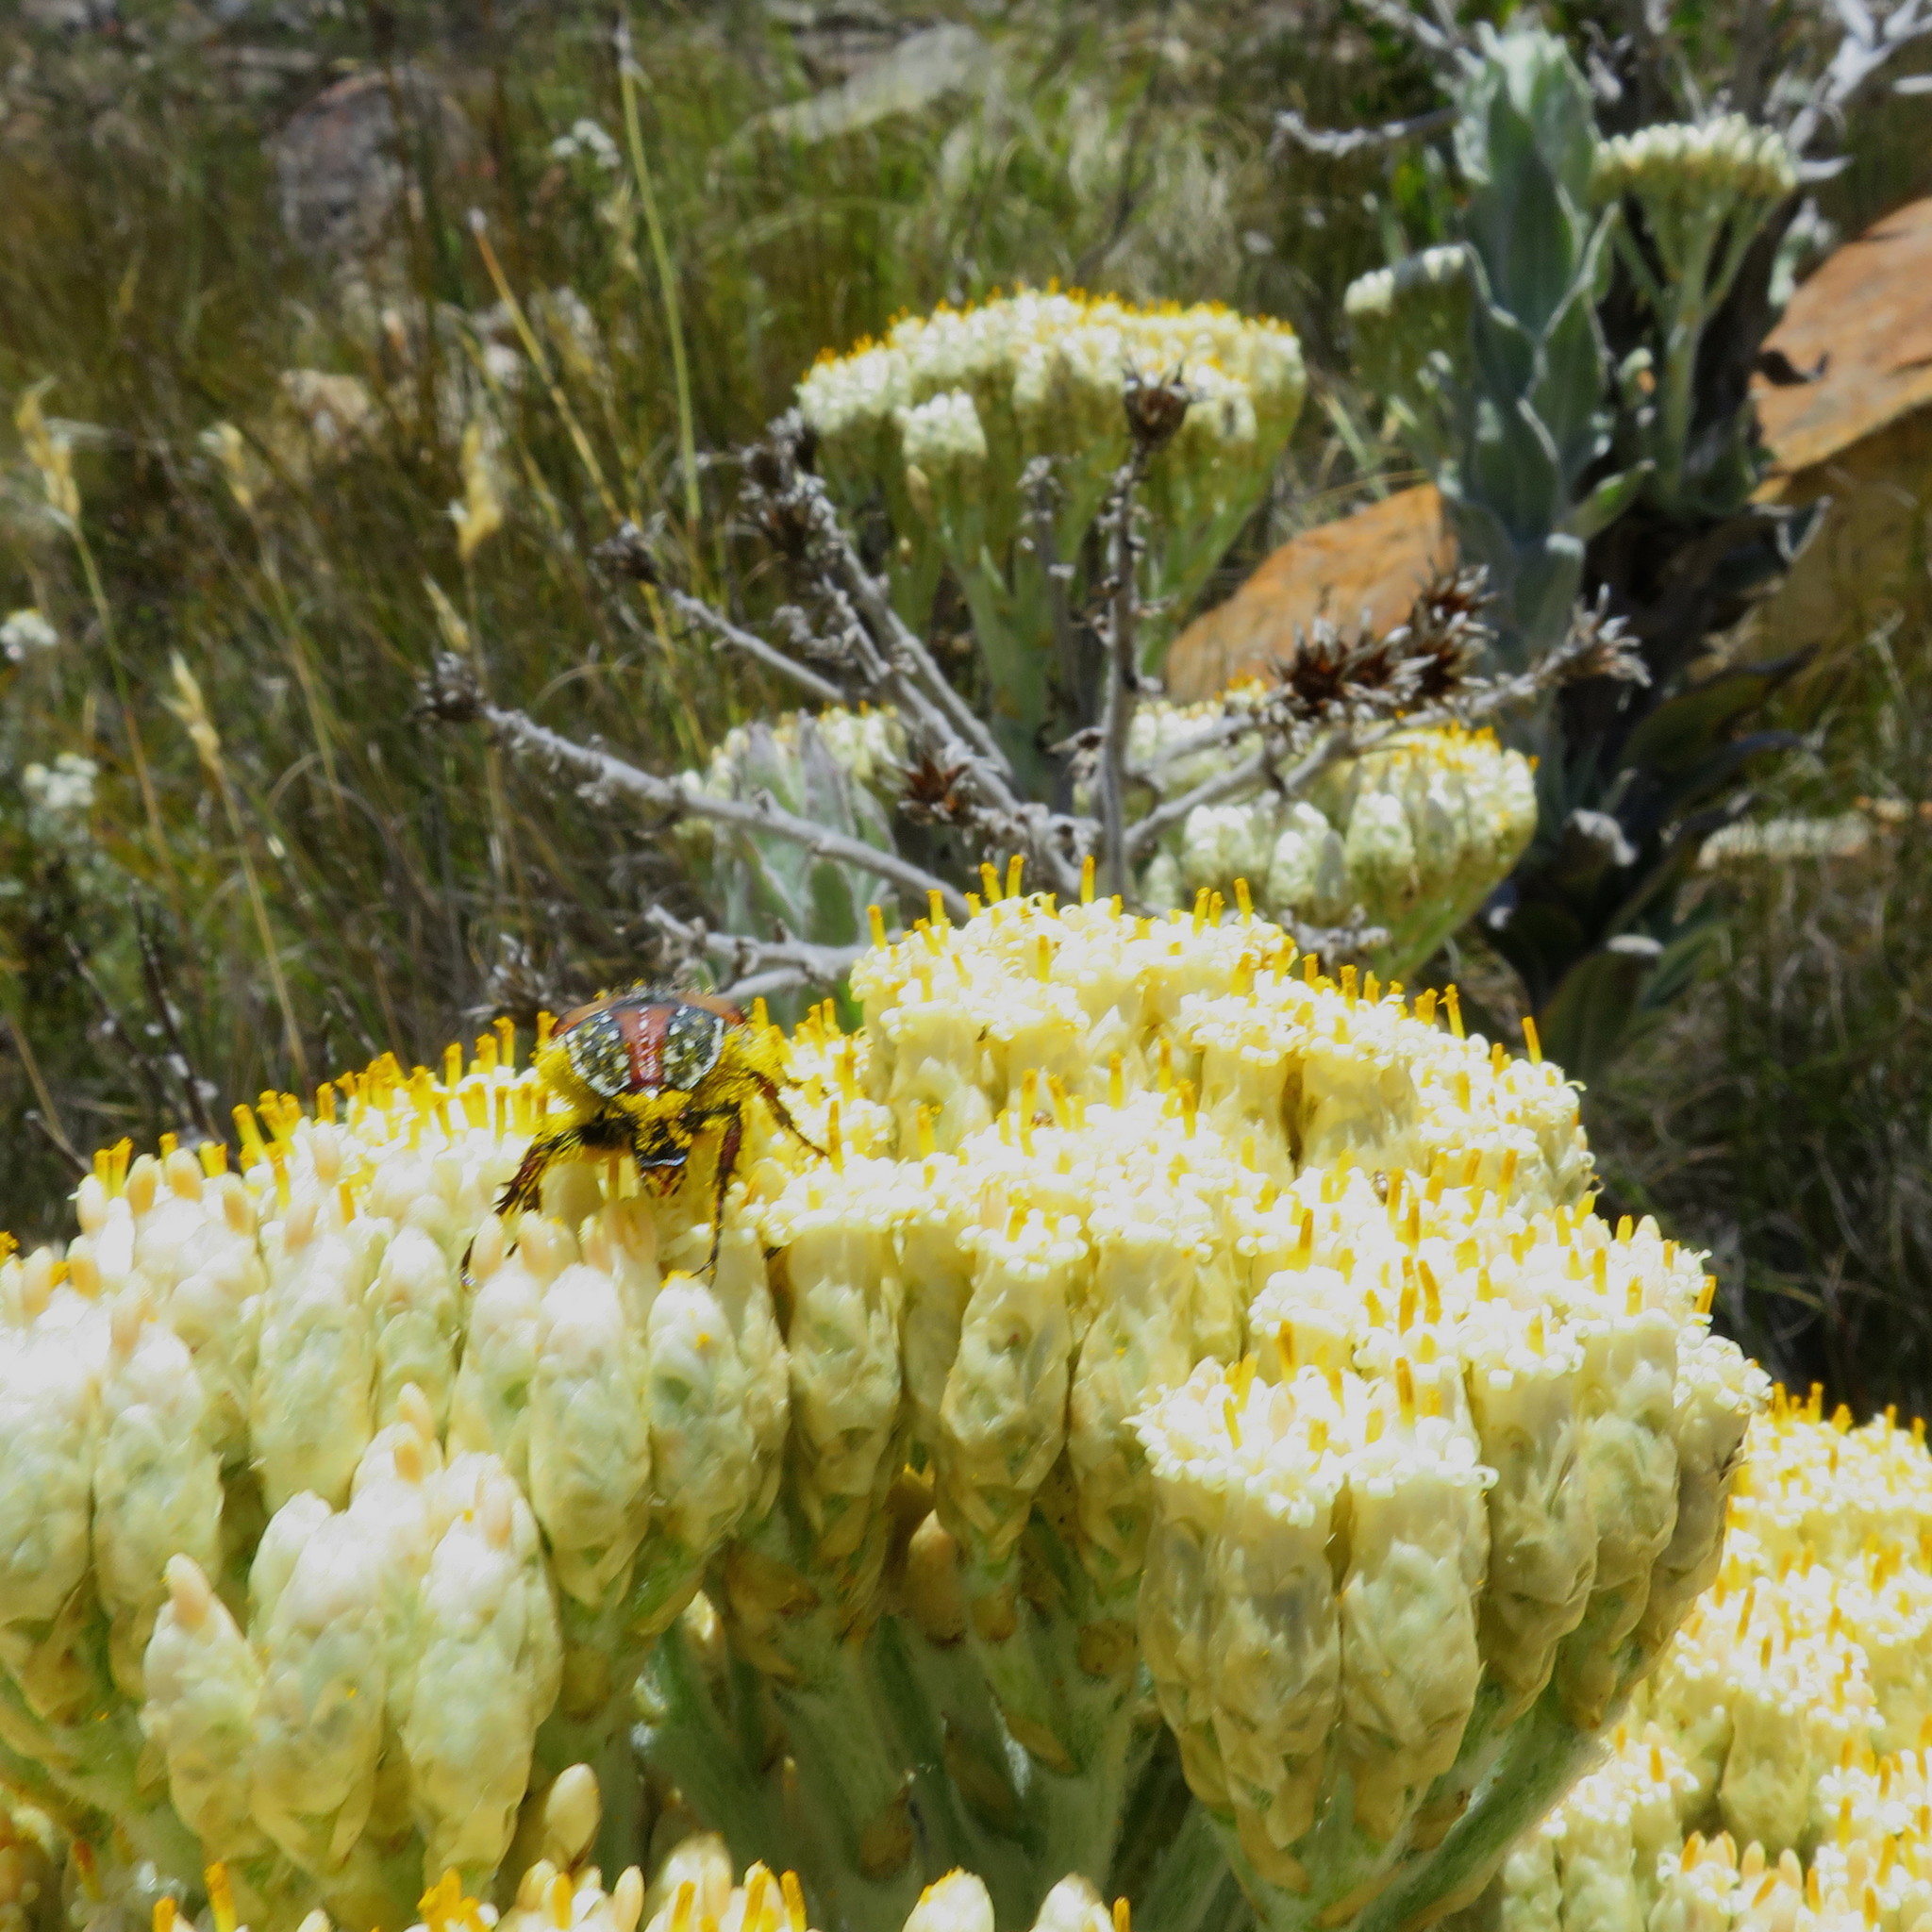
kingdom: Animalia
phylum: Arthropoda
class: Insecta
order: Coleoptera
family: Scarabaeidae
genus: Trichostetha
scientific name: Trichostetha capensis
